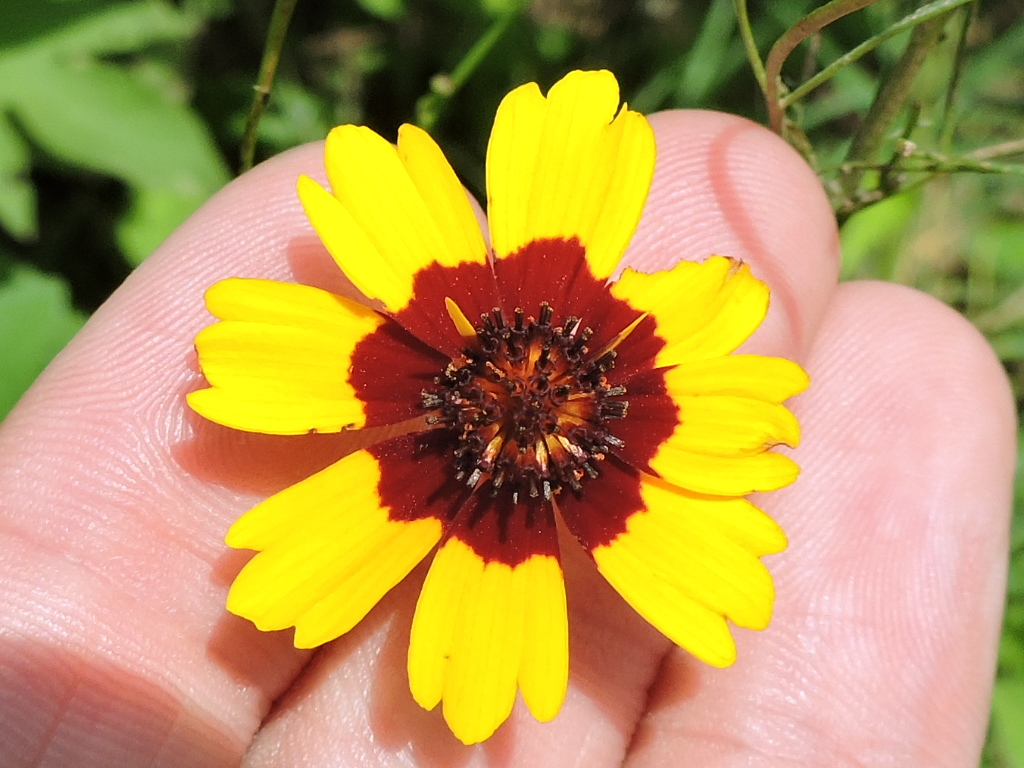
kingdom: Plantae
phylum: Tracheophyta
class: Magnoliopsida
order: Asterales
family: Asteraceae
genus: Coreopsis
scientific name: Coreopsis tinctoria
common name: Garden tickseed
